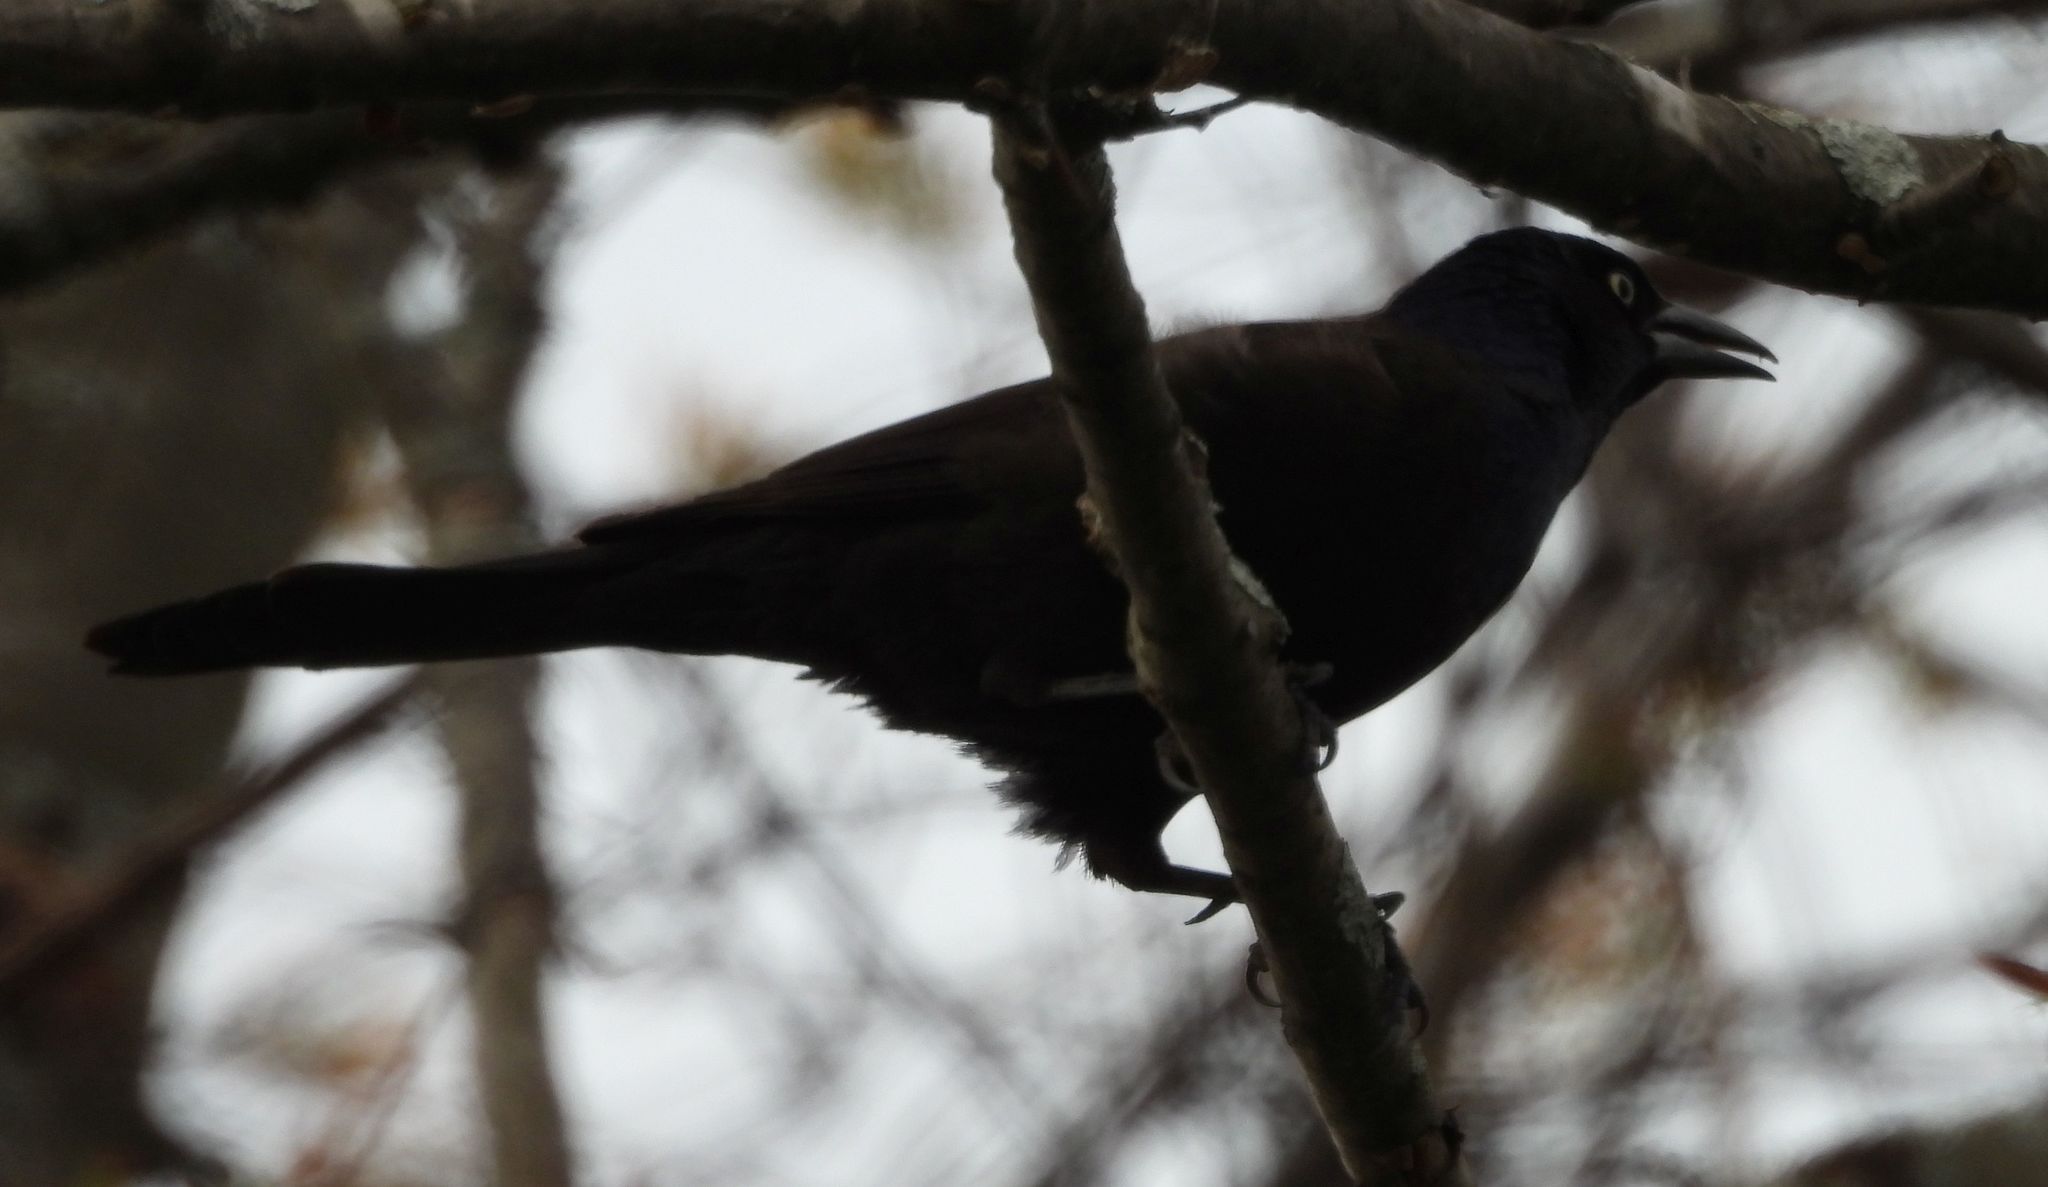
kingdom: Animalia
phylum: Chordata
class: Aves
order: Passeriformes
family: Icteridae
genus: Quiscalus
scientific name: Quiscalus quiscula
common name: Common grackle
